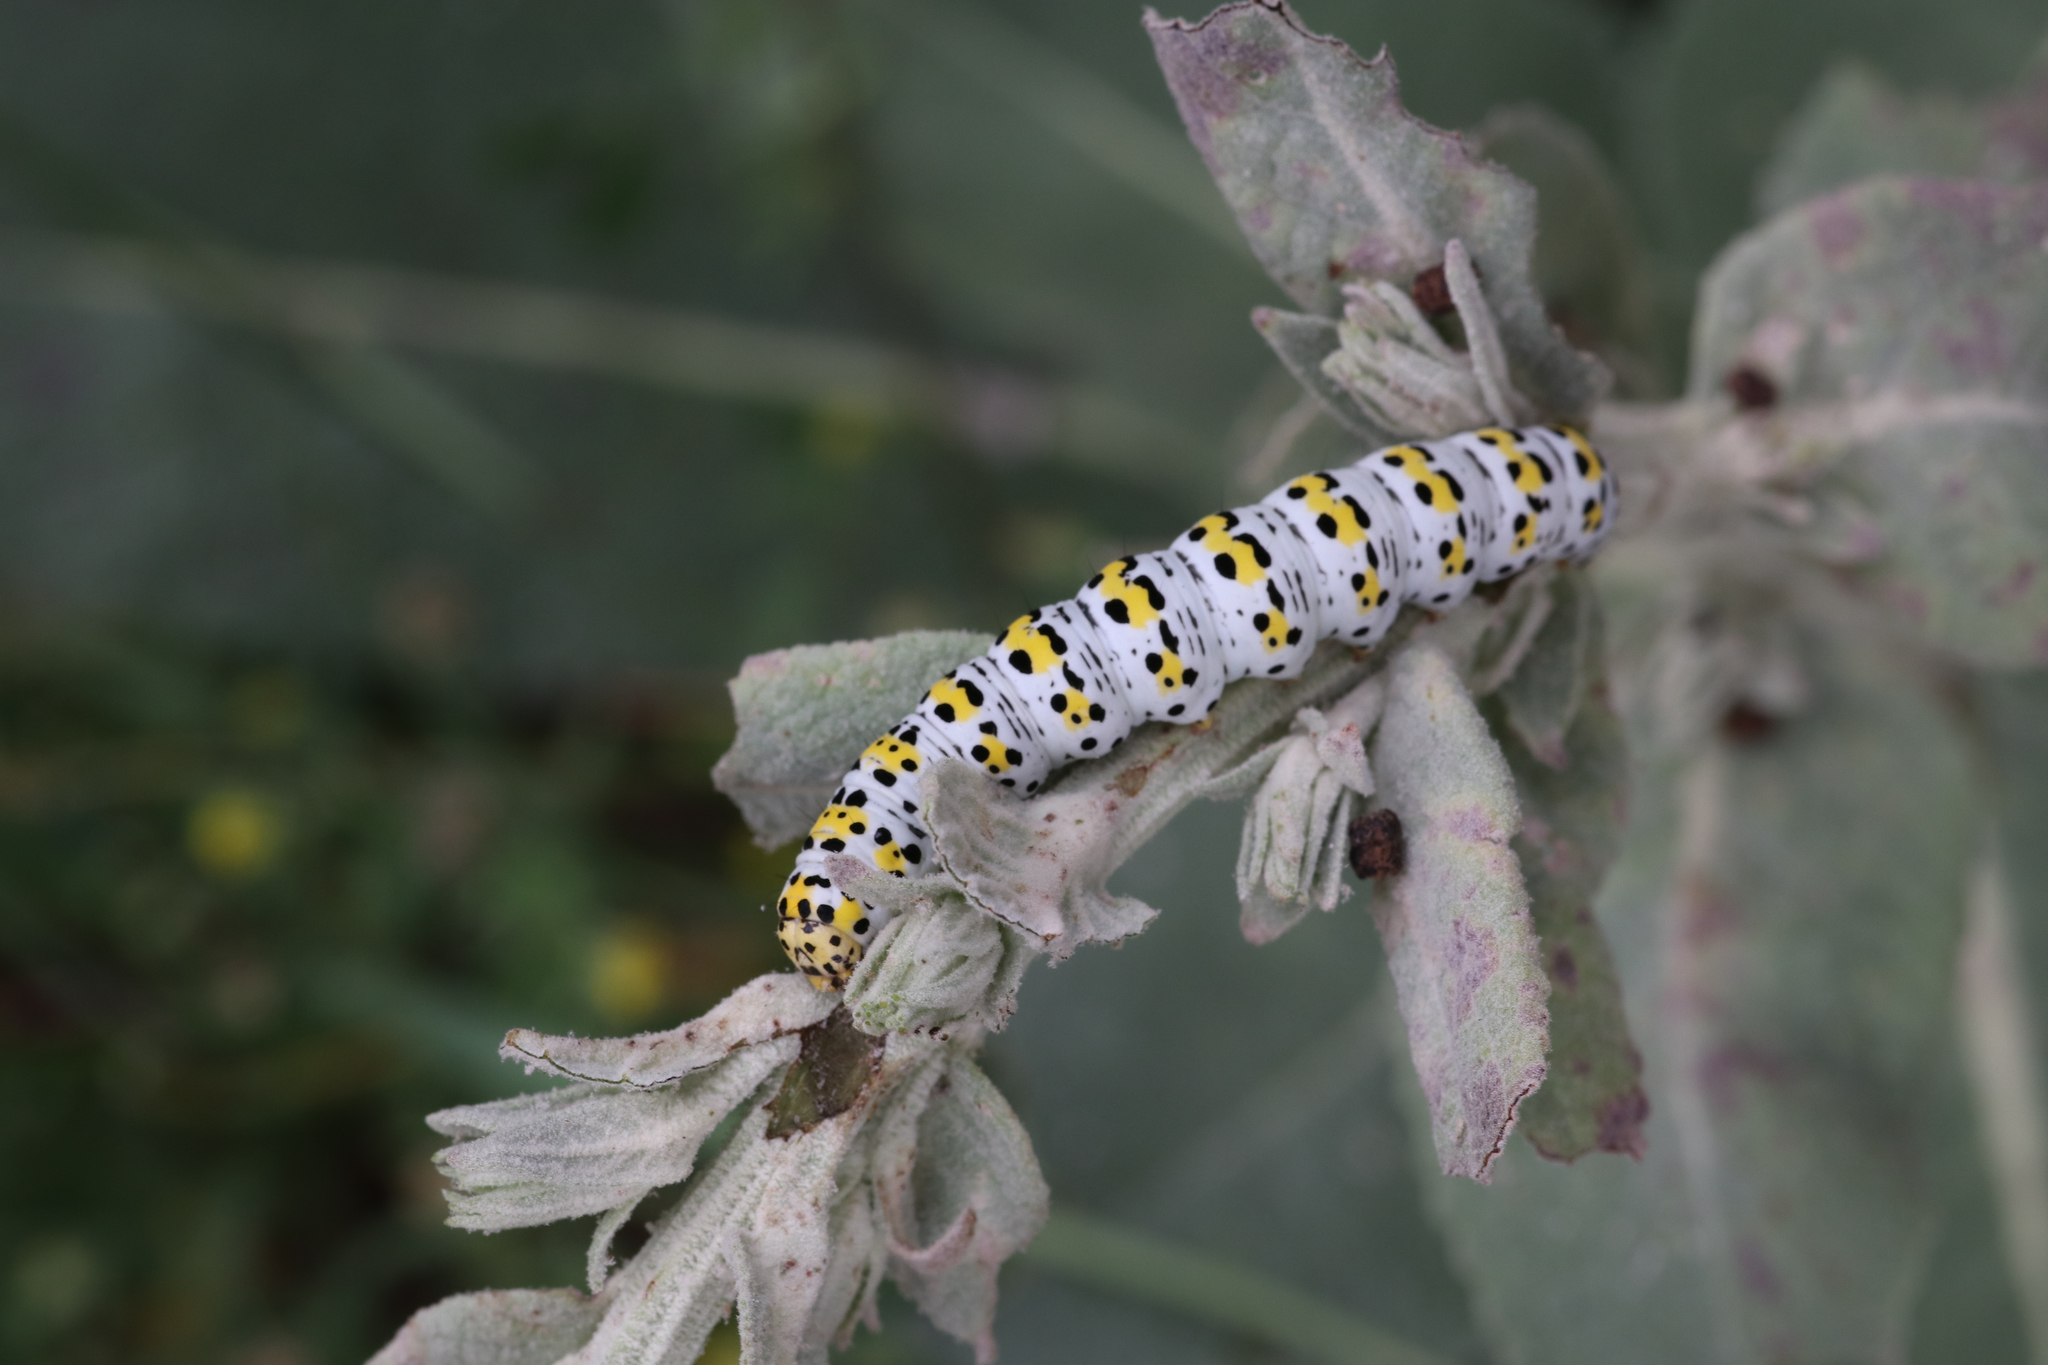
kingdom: Animalia
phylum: Arthropoda
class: Insecta
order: Lepidoptera
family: Noctuidae
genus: Cucullia
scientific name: Cucullia verbasci
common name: Mullein
